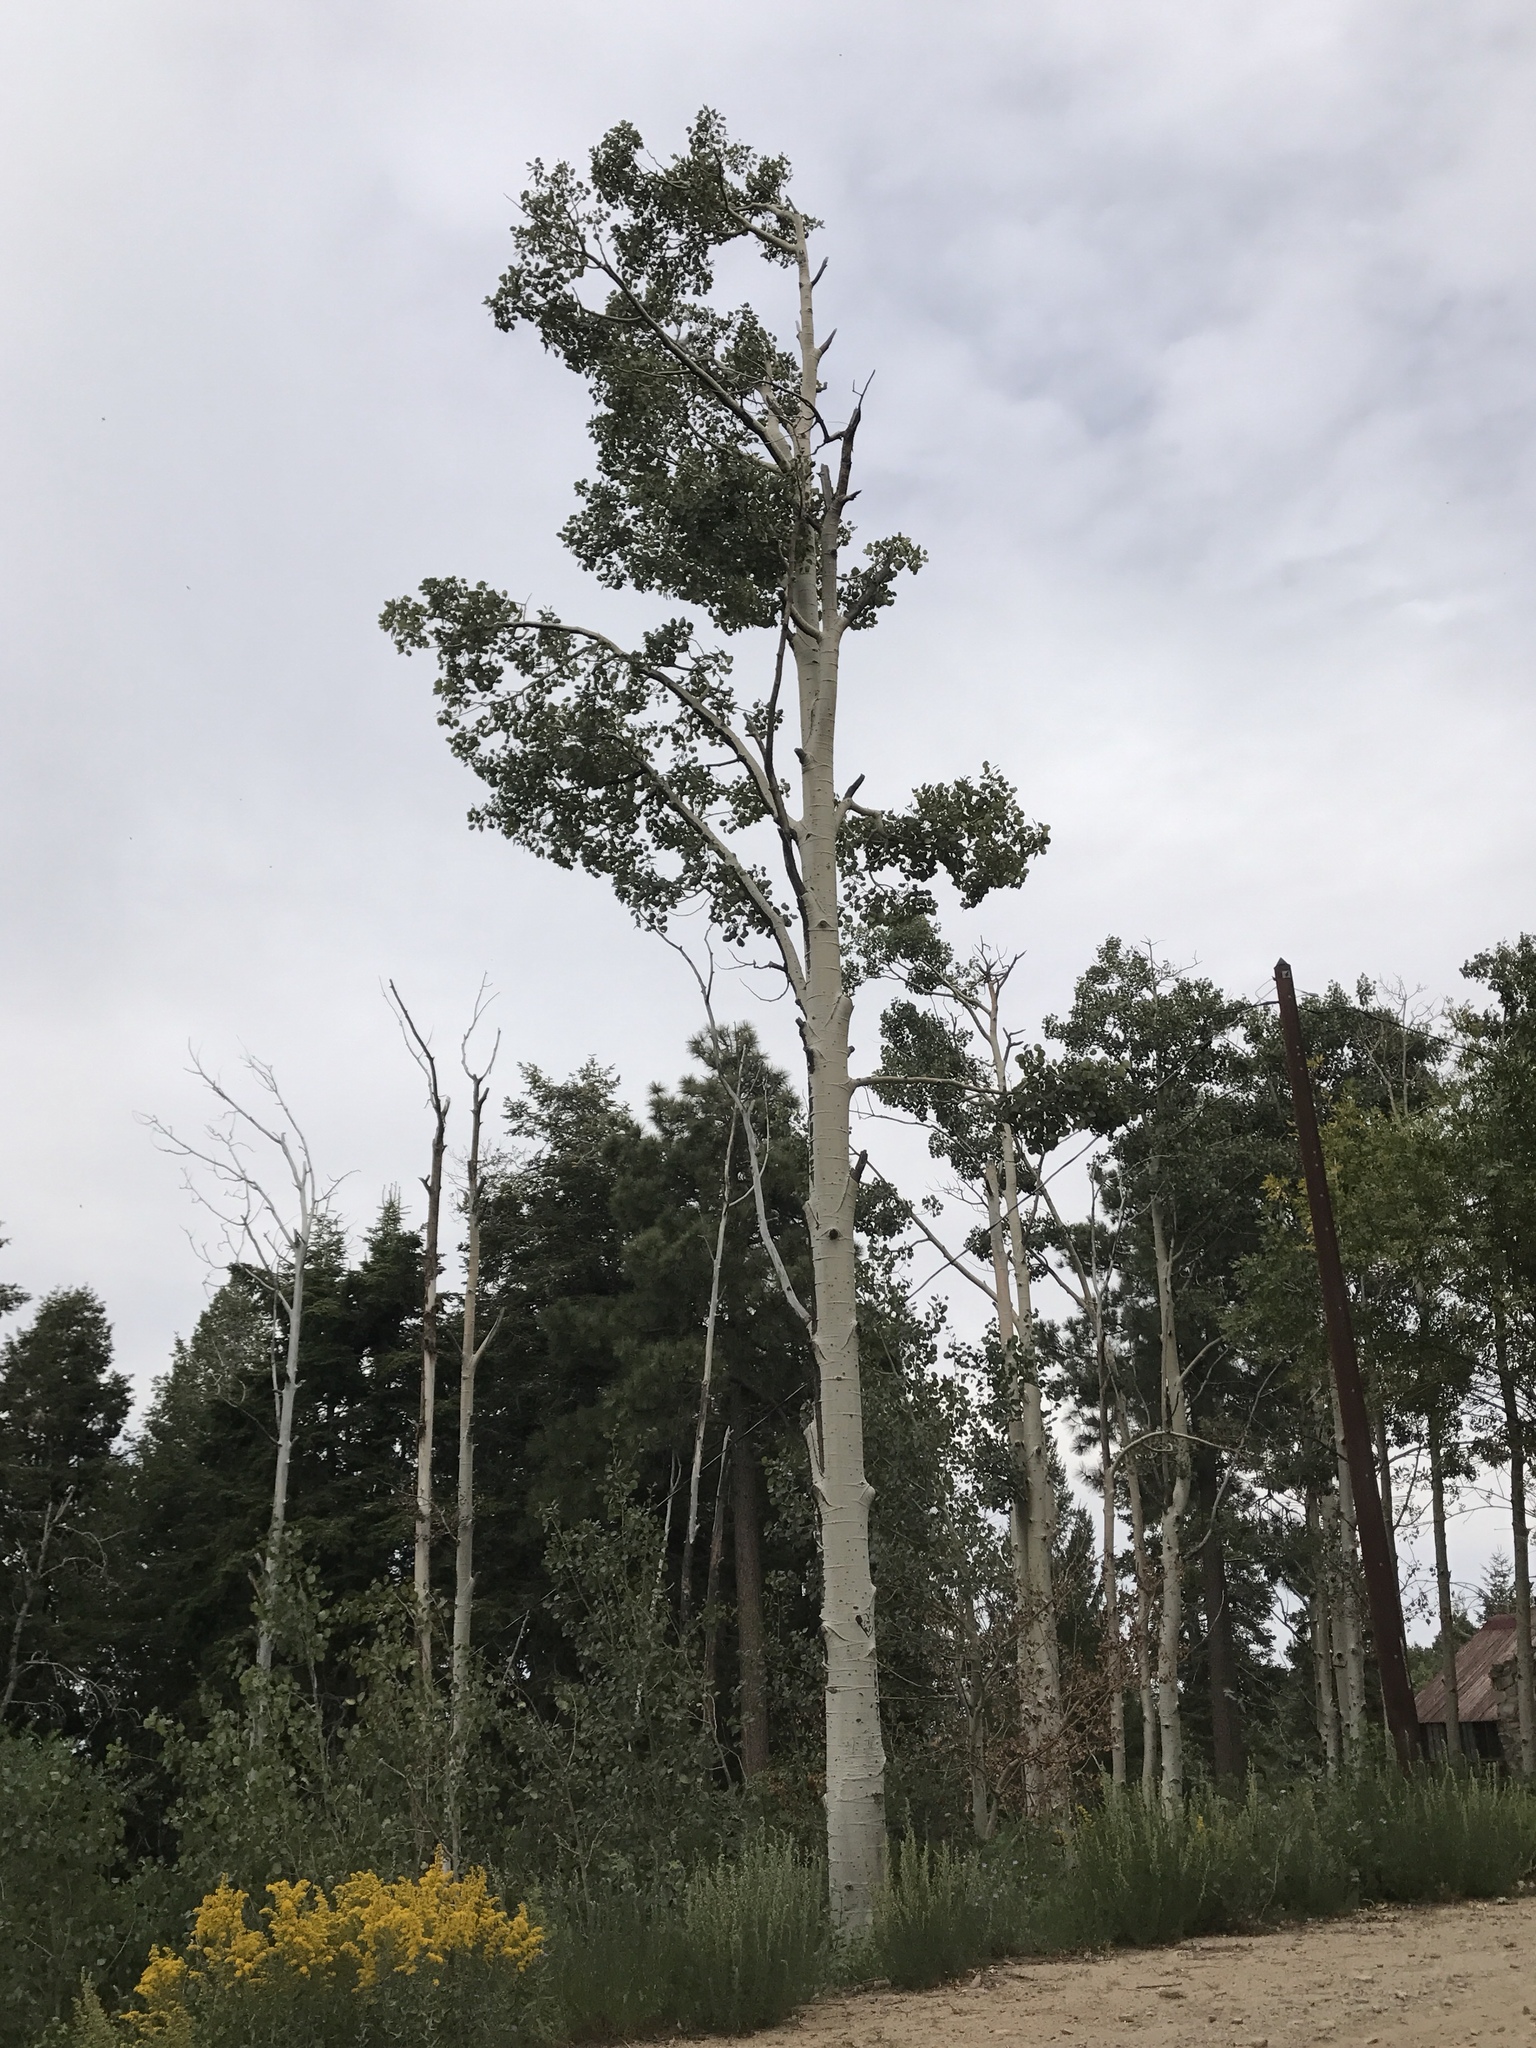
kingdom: Plantae
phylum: Tracheophyta
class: Magnoliopsida
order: Malpighiales
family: Salicaceae
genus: Populus
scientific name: Populus tremuloides
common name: Quaking aspen
